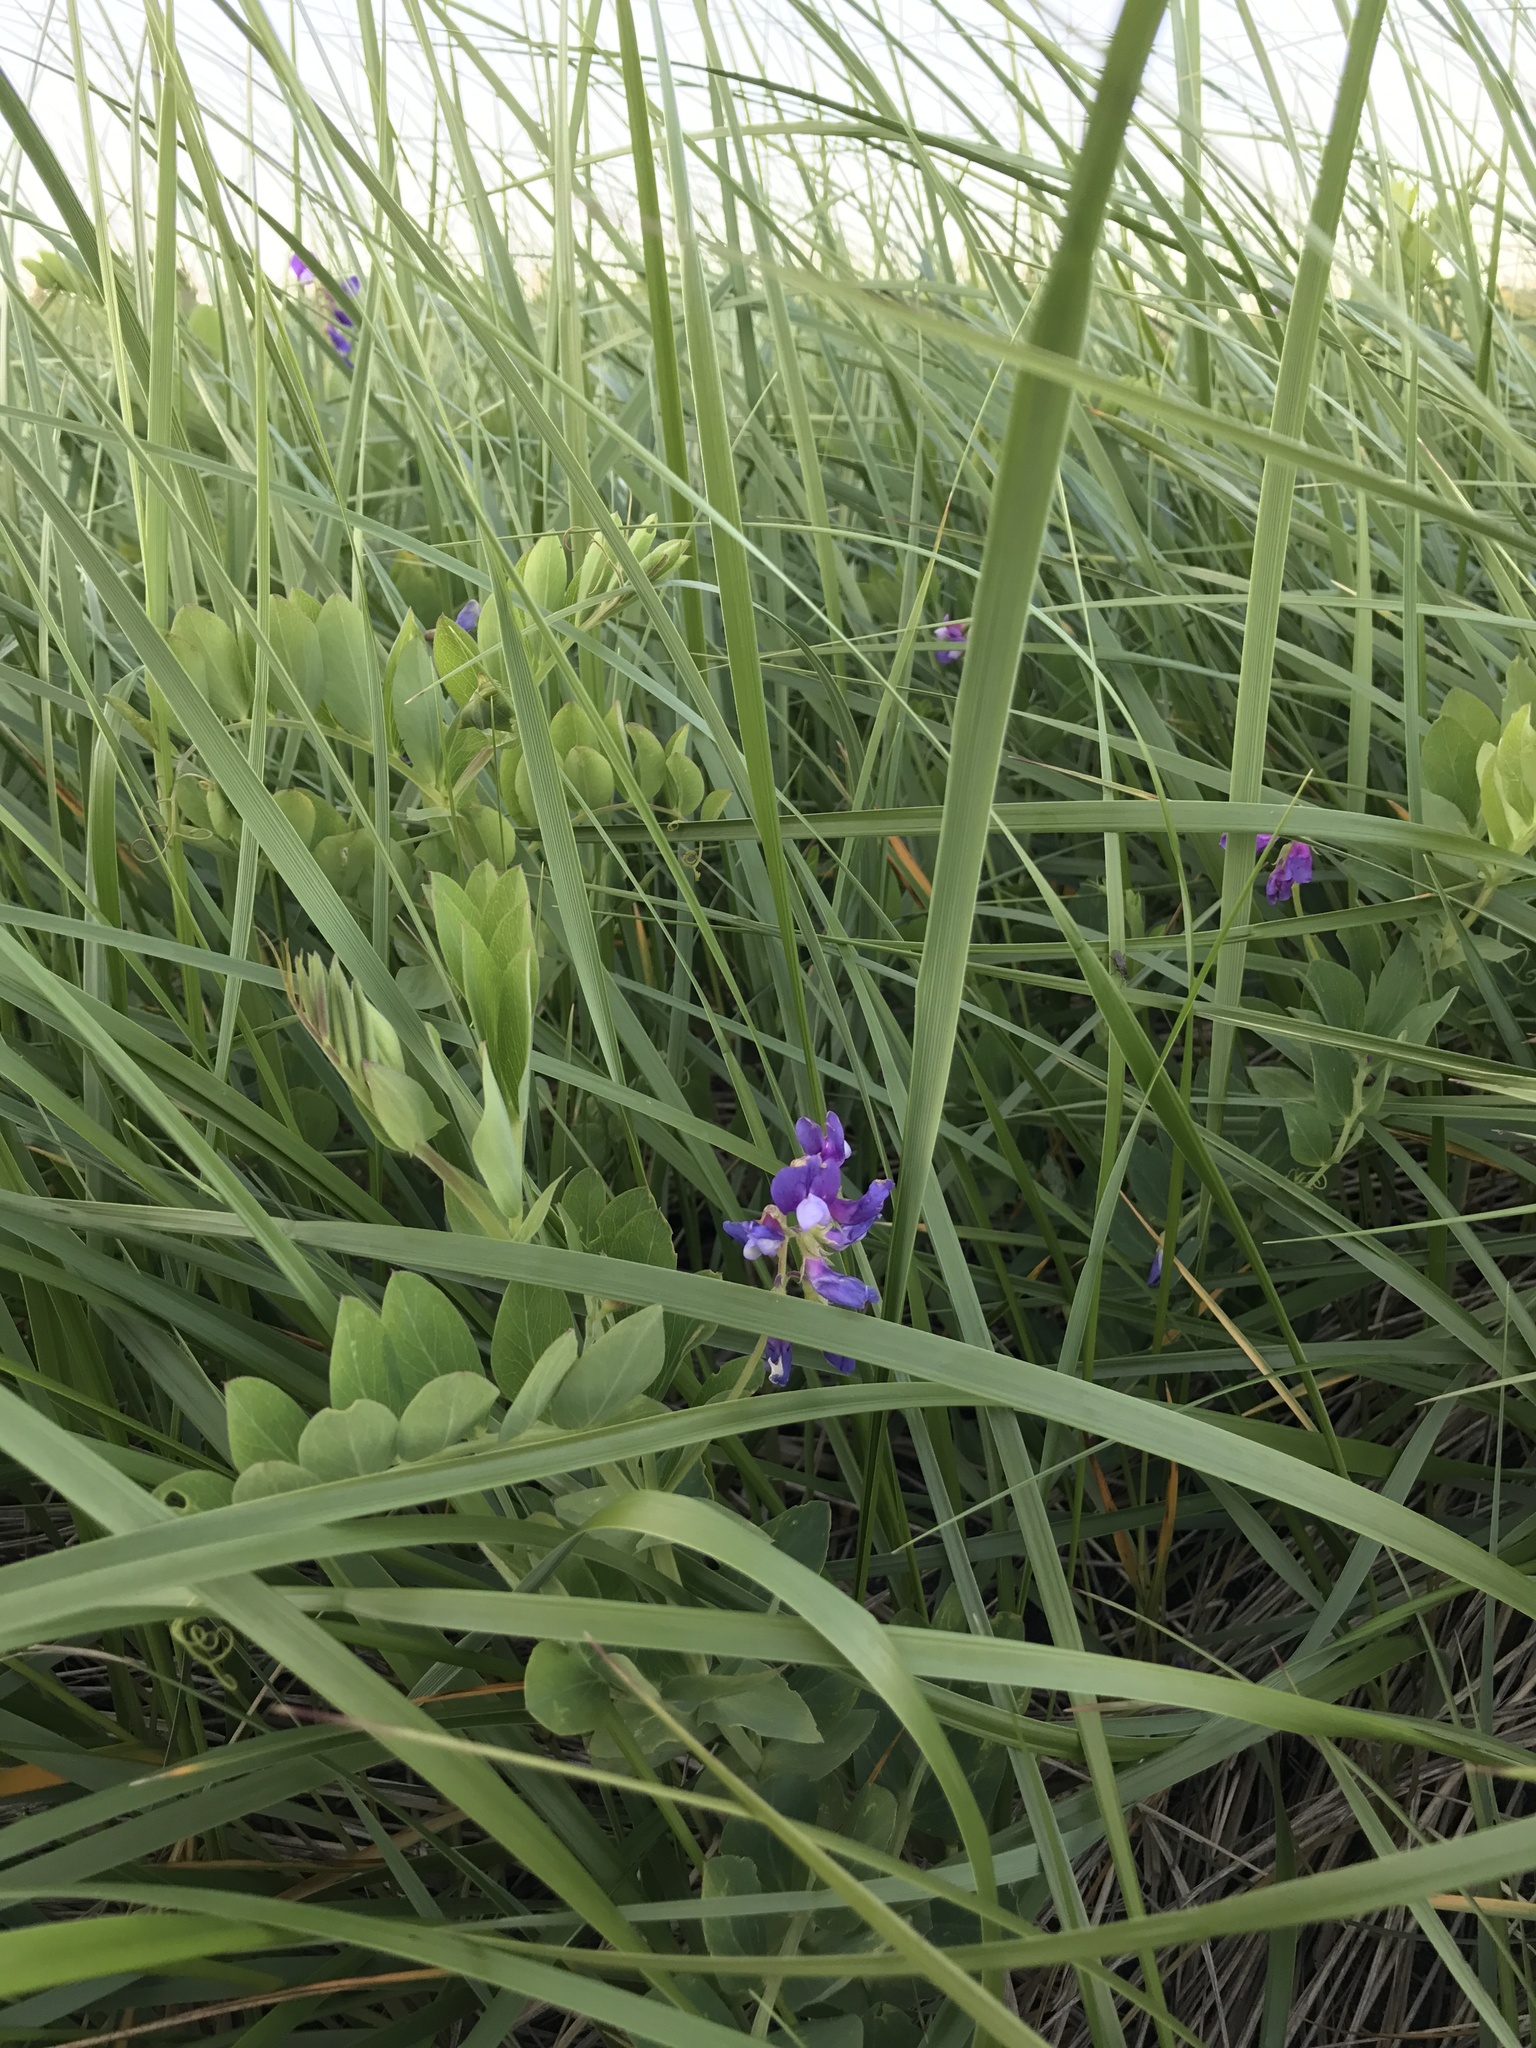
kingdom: Plantae
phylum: Tracheophyta
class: Magnoliopsida
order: Fabales
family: Fabaceae
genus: Lathyrus
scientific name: Lathyrus japonicus
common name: Sea pea
